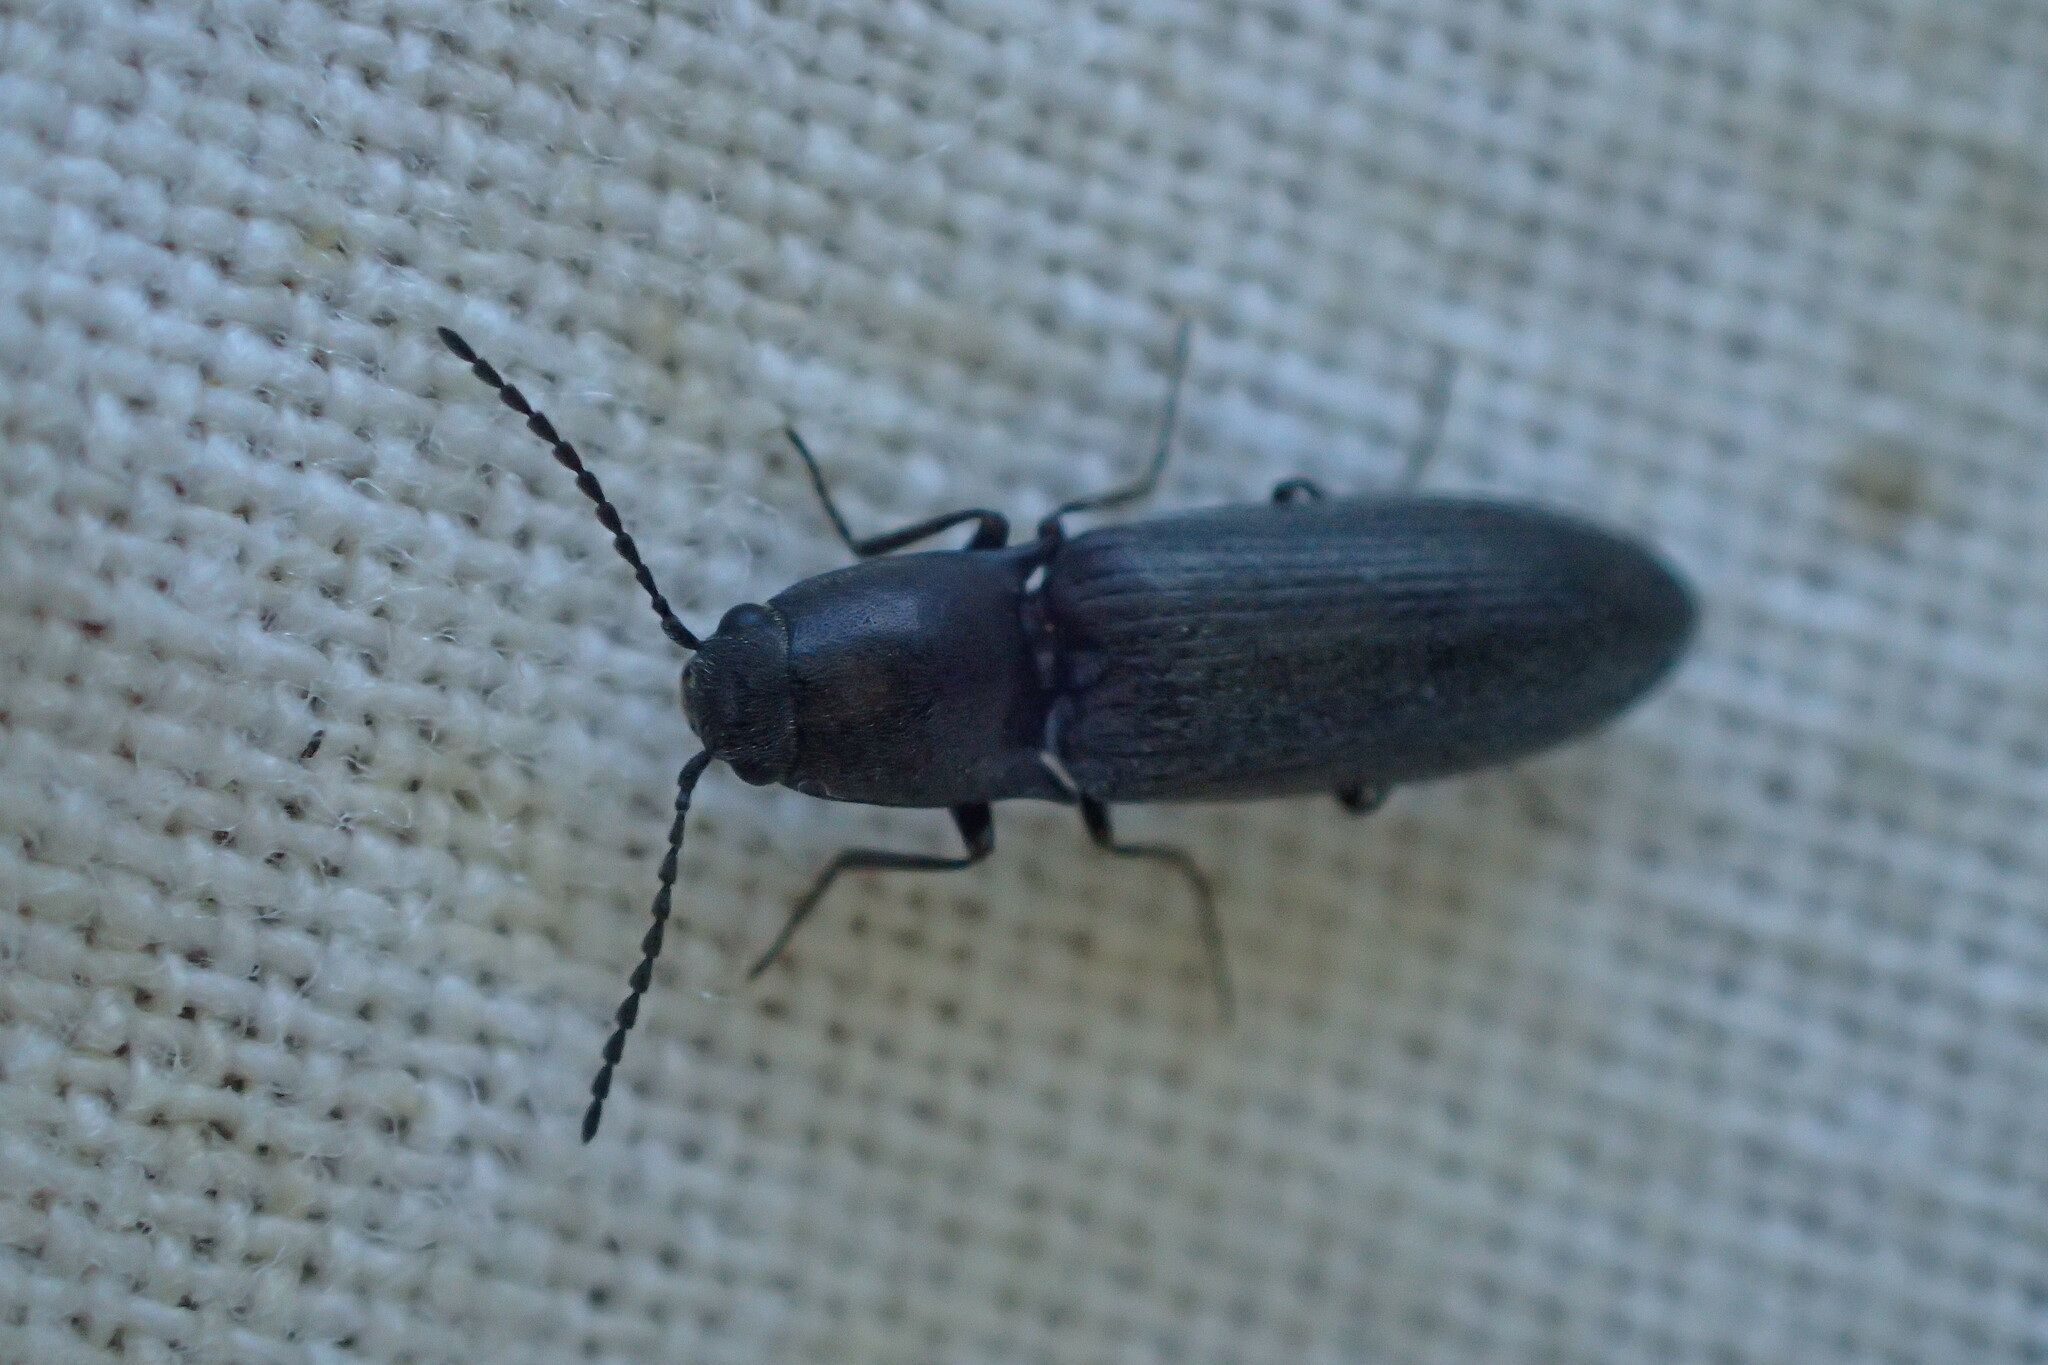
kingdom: Animalia
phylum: Arthropoda
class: Insecta
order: Coleoptera
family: Elateridae
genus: Aplotarsus
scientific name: Aplotarsus incanus
